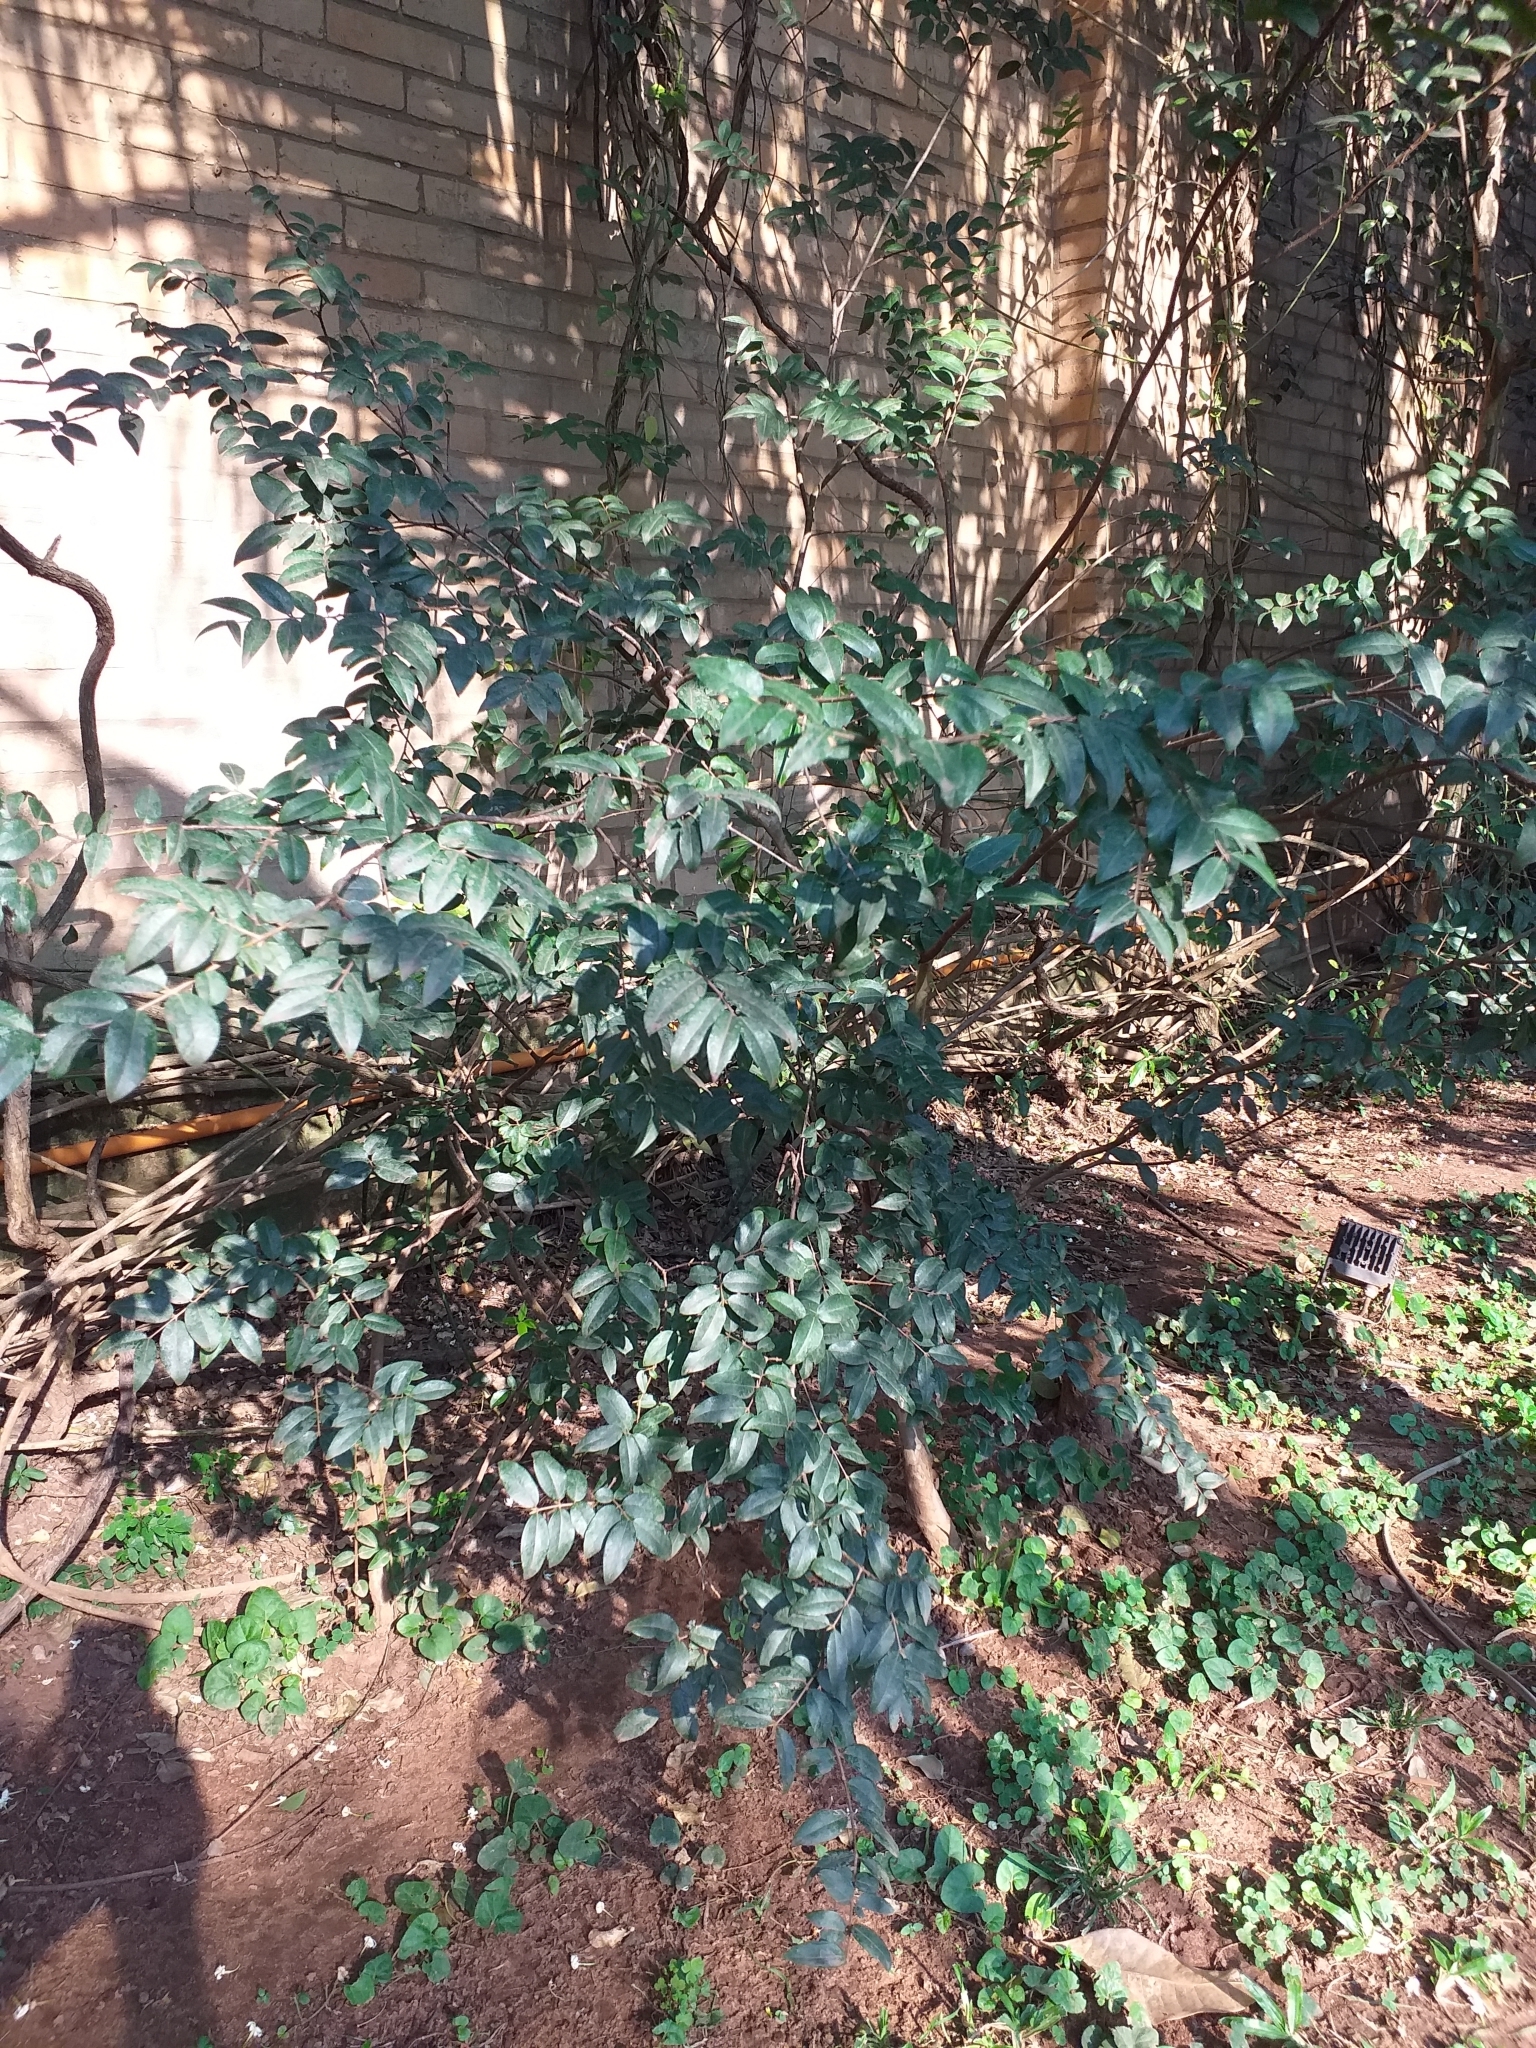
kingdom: Plantae
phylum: Tracheophyta
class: Magnoliopsida
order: Myrtales
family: Myrtaceae
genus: Plinia
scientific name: Plinia cauliflora
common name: Brazilian grapetree
